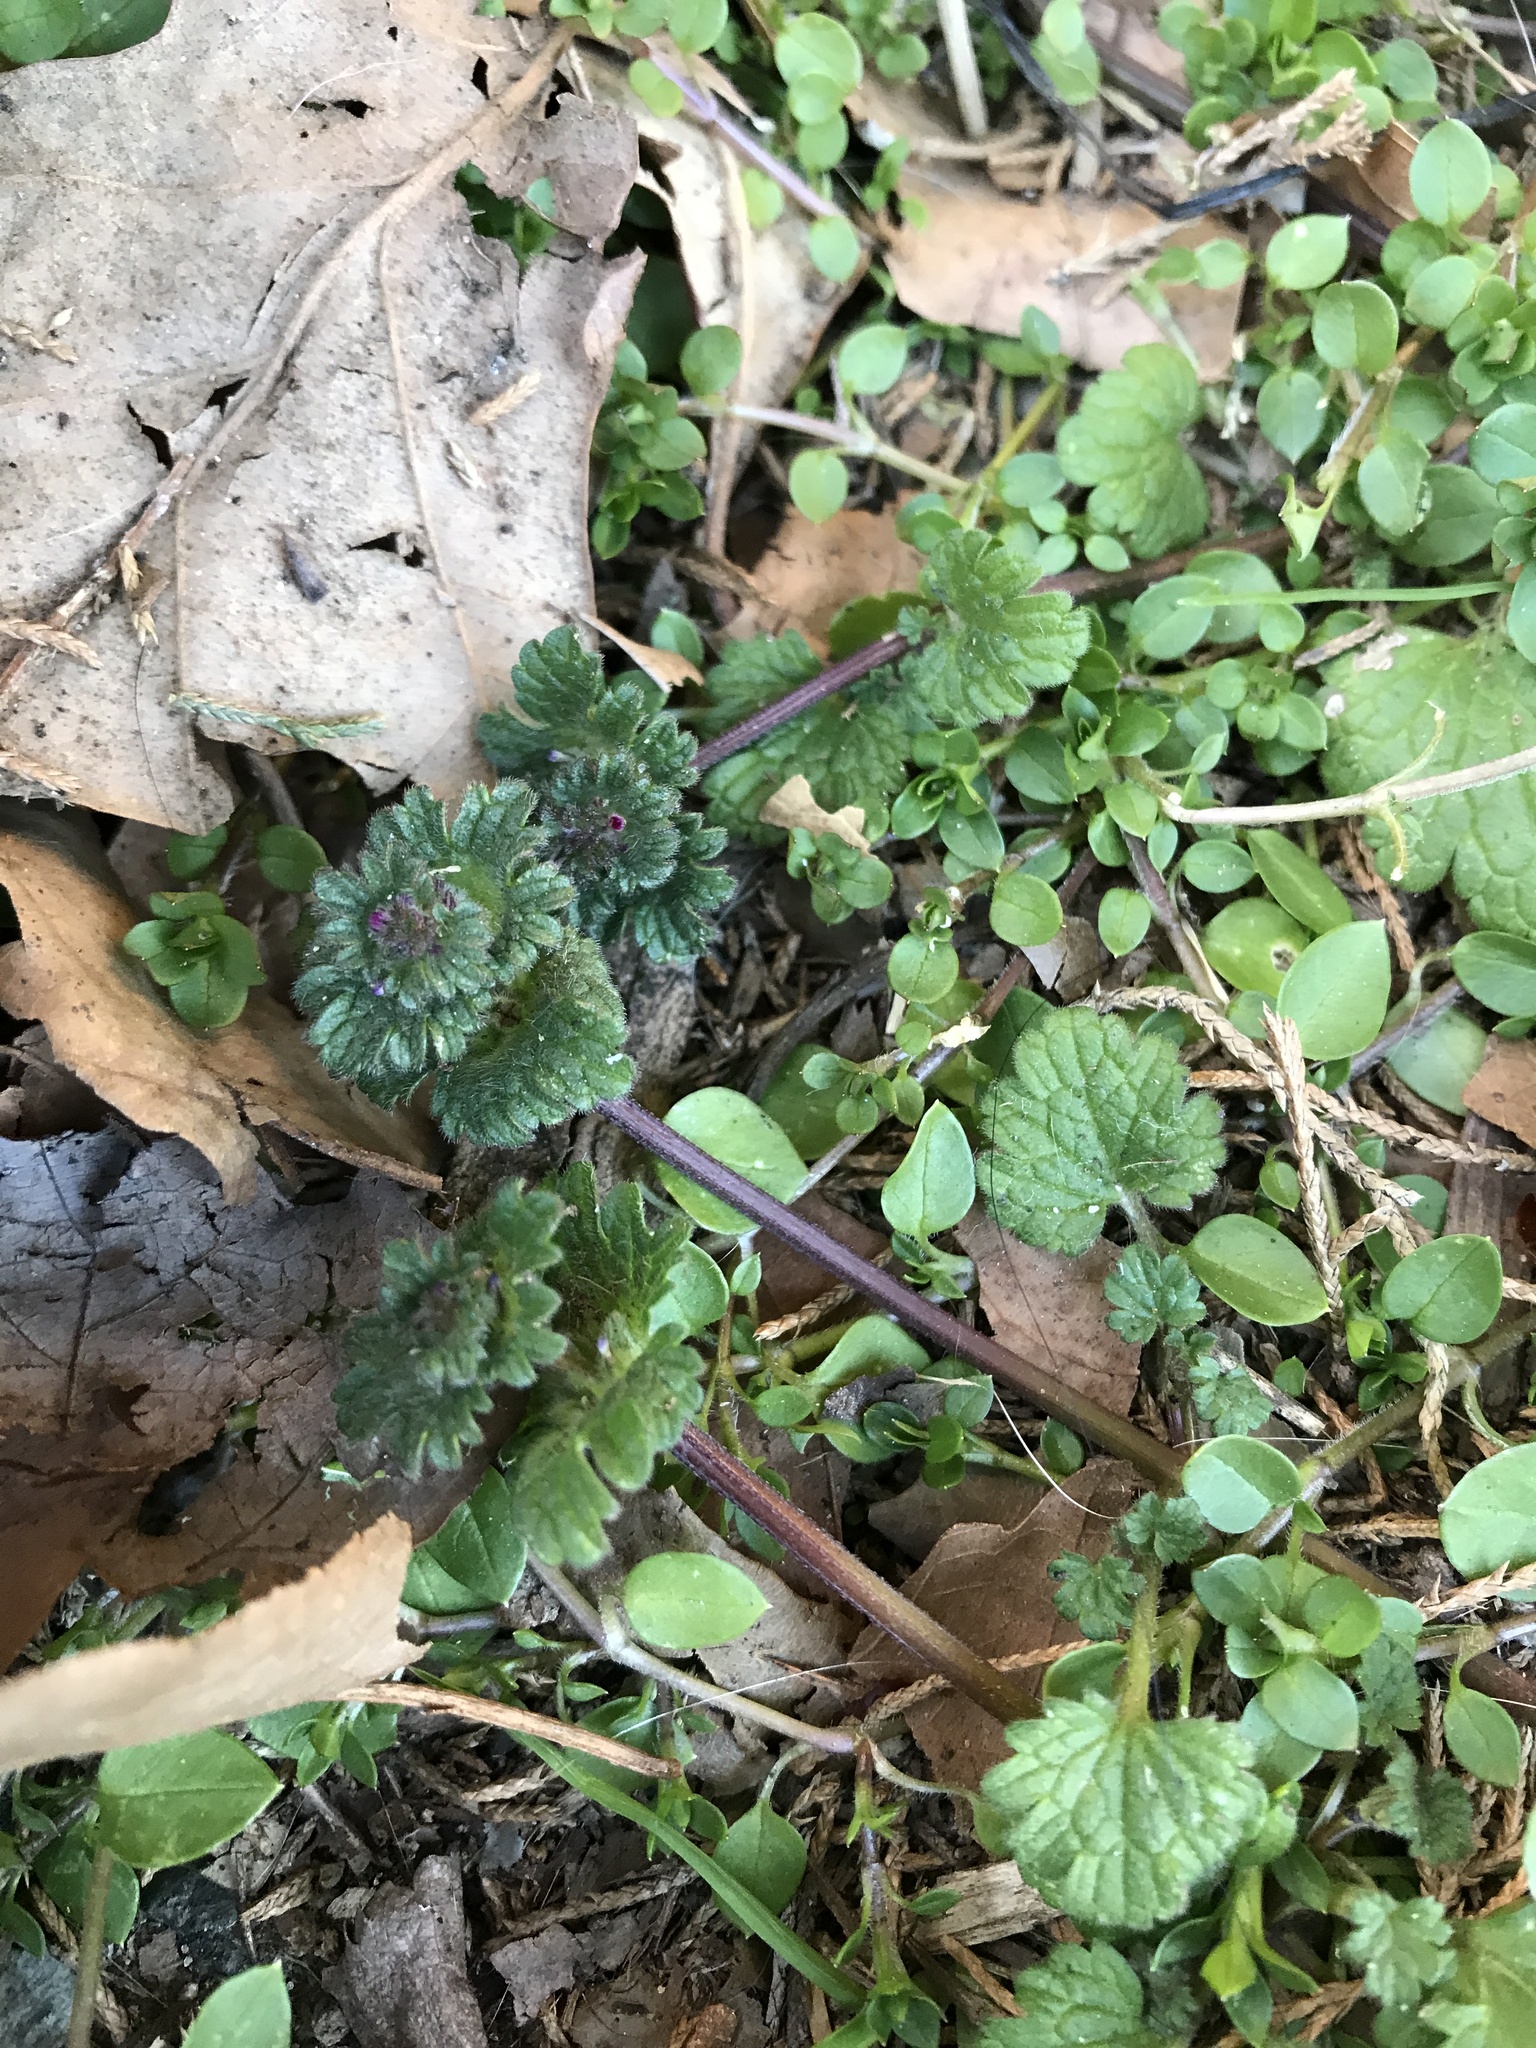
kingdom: Plantae
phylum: Tracheophyta
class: Magnoliopsida
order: Lamiales
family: Lamiaceae
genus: Lamium
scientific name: Lamium amplexicaule
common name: Henbit dead-nettle
